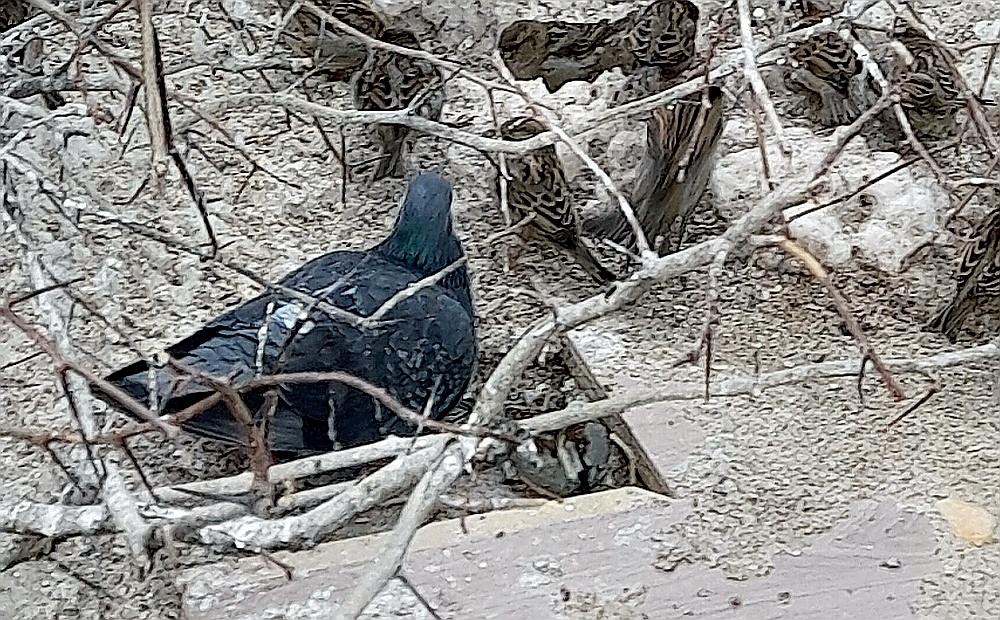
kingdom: Animalia
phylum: Chordata
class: Aves
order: Columbiformes
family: Columbidae
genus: Columba
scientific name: Columba livia
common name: Rock pigeon
